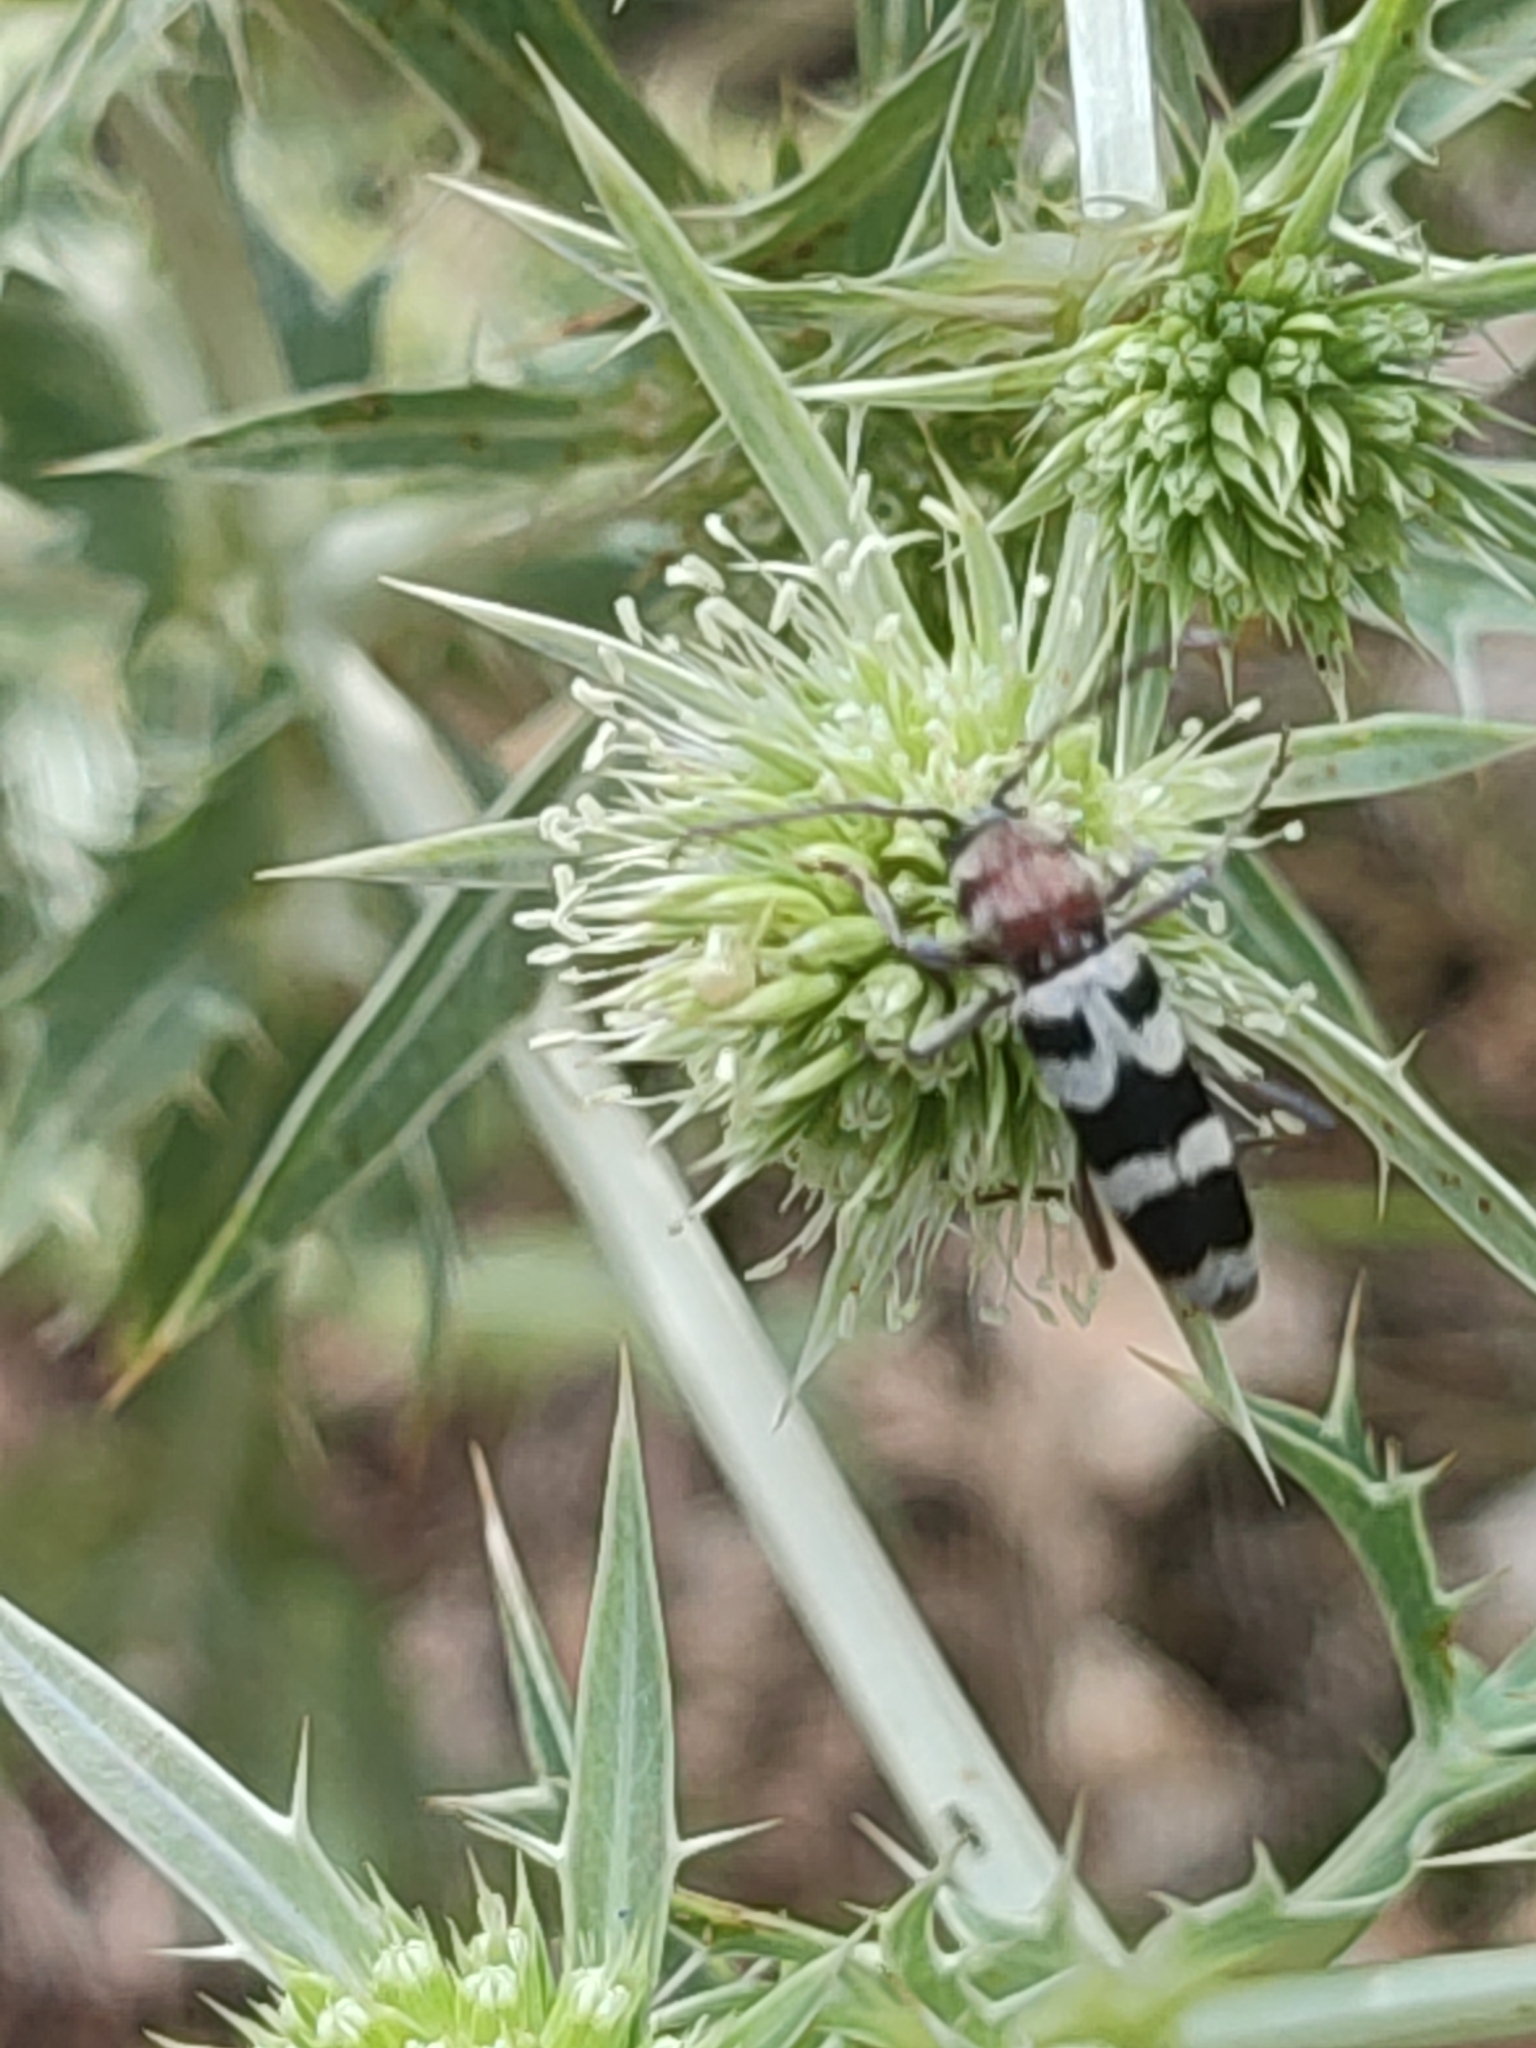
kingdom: Animalia
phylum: Arthropoda
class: Insecta
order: Coleoptera
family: Cerambycidae
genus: Chlorophorus
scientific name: Chlorophorus trifasciatus
